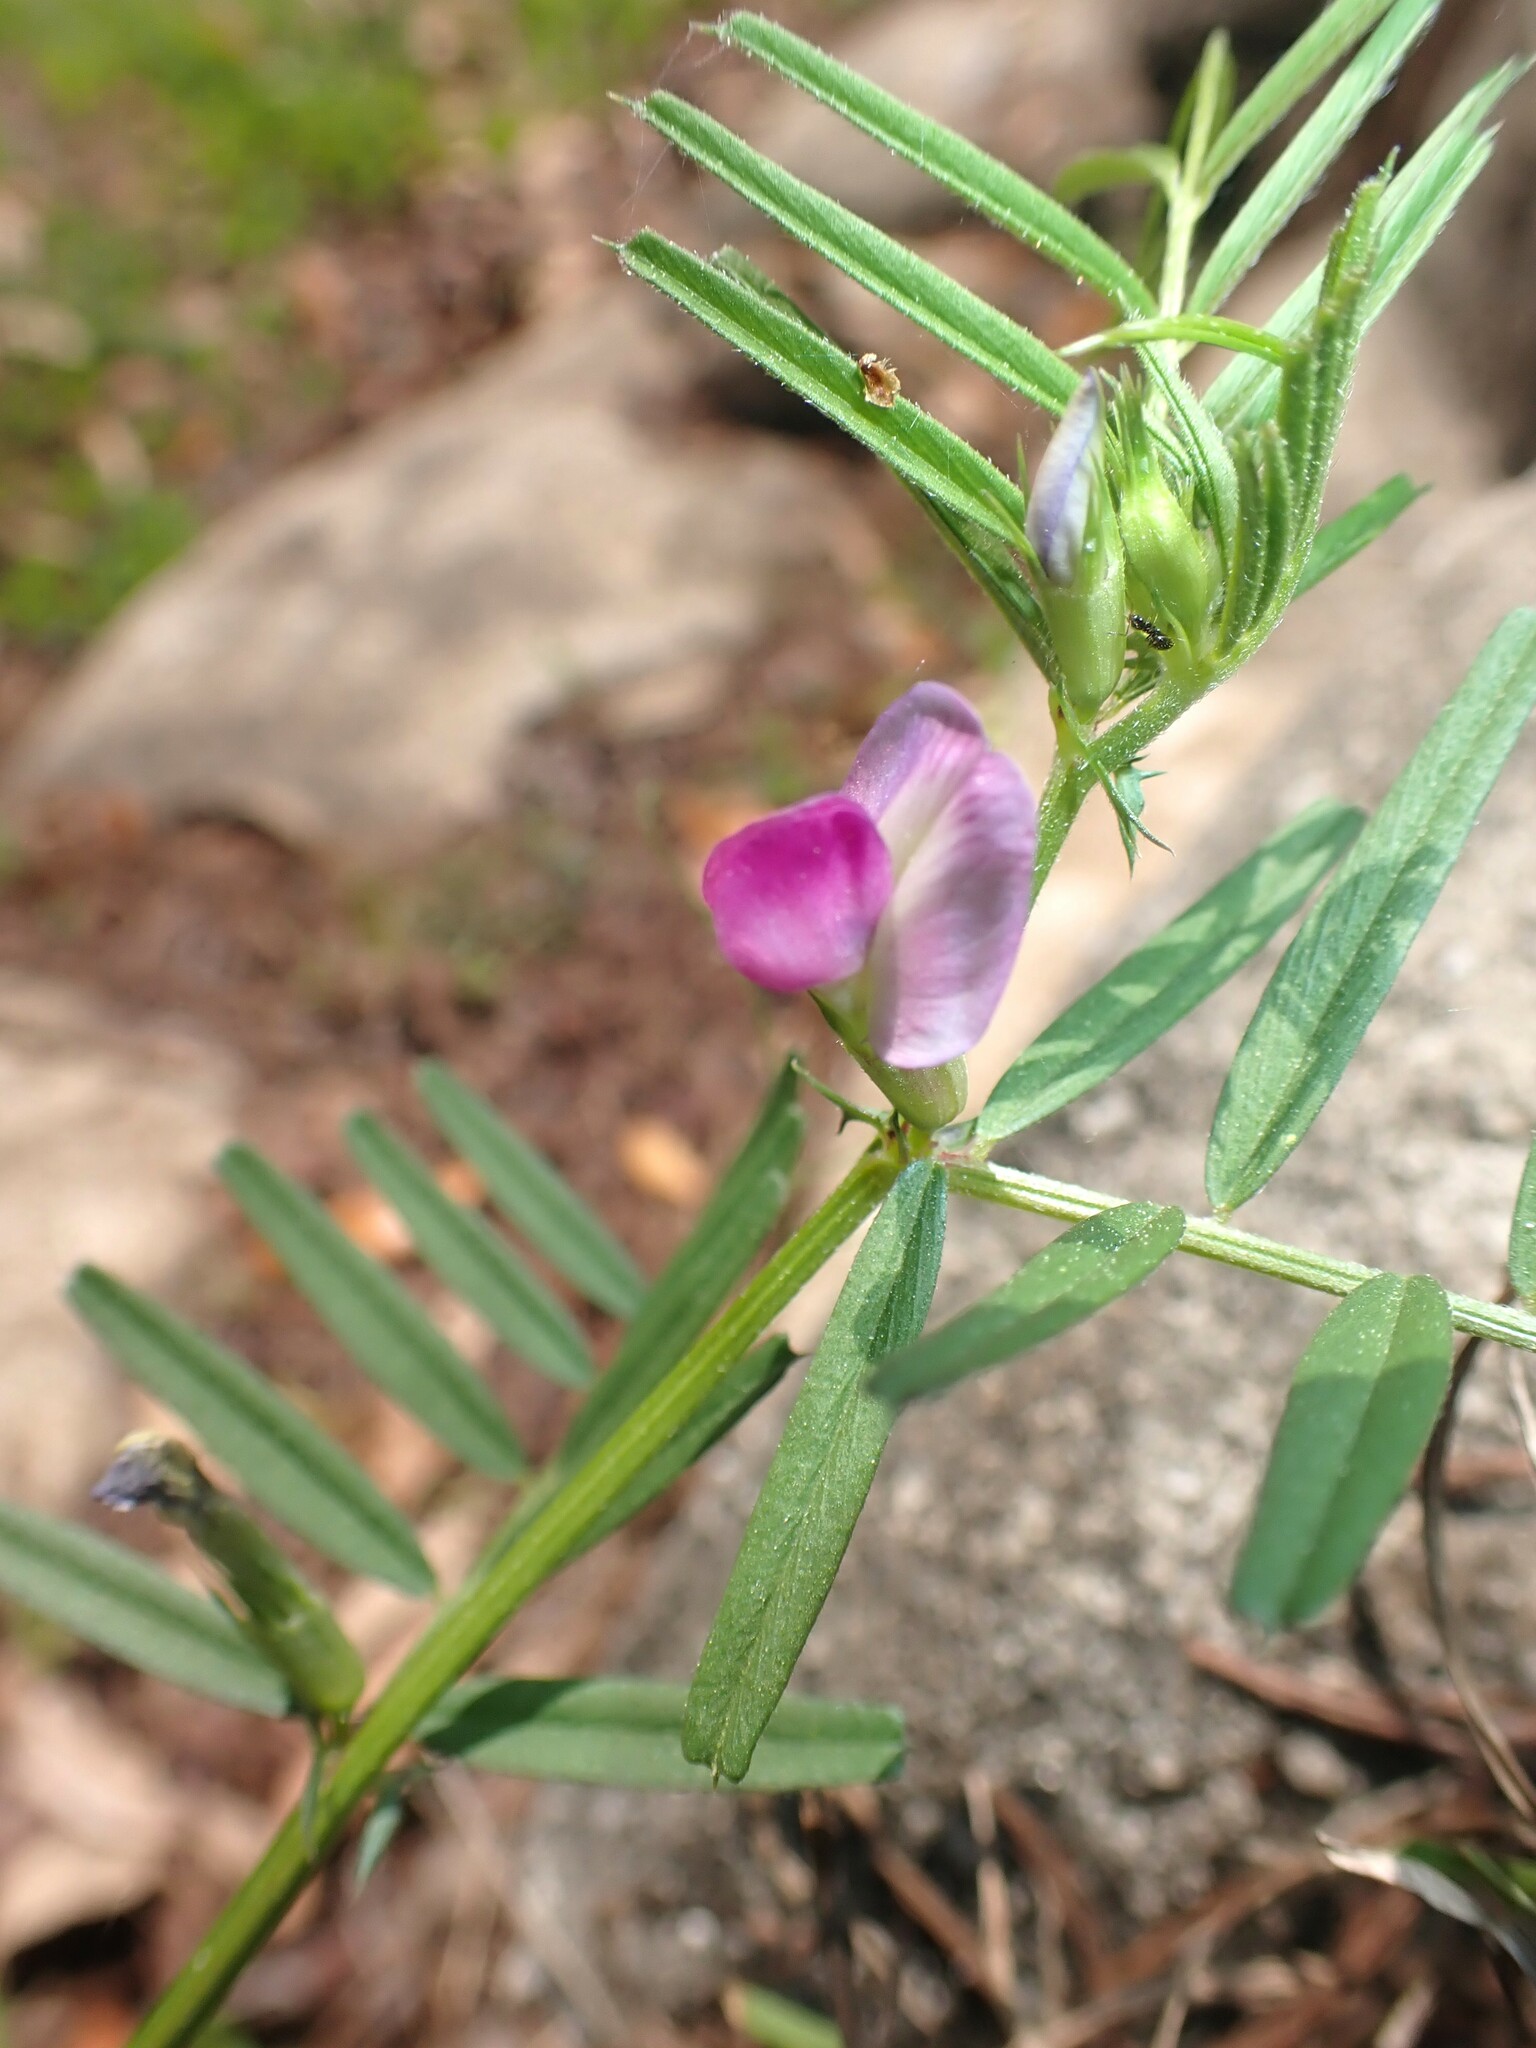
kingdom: Plantae
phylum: Tracheophyta
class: Magnoliopsida
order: Fabales
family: Fabaceae
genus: Vicia
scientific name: Vicia sativa
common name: Garden vetch
